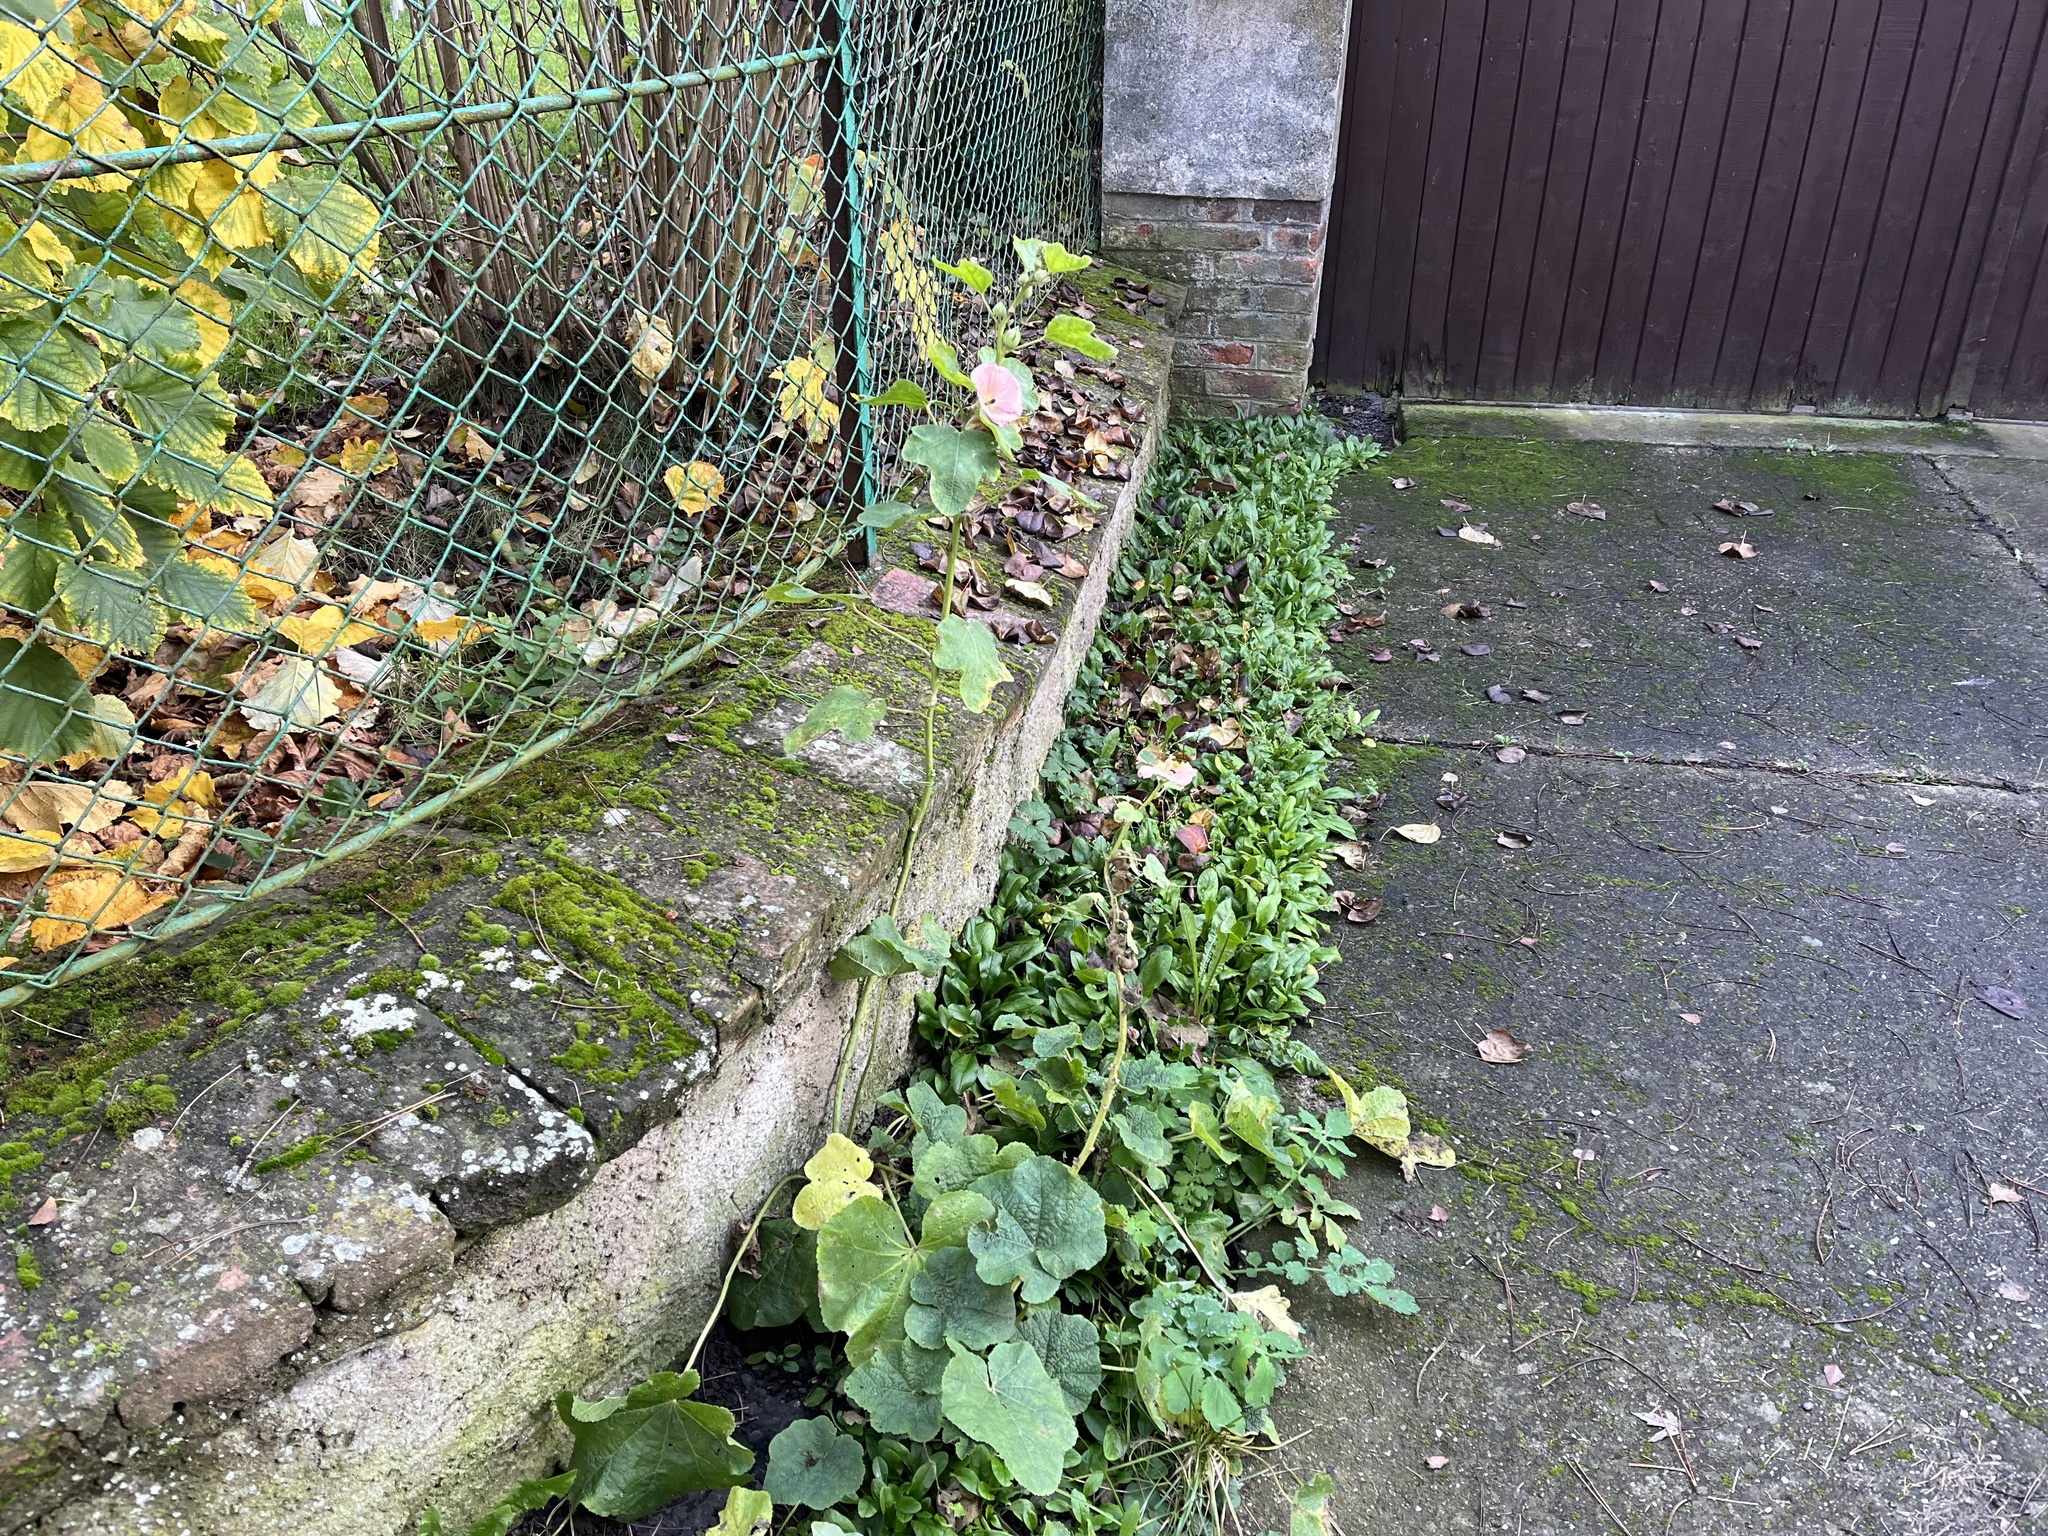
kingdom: Plantae
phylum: Tracheophyta
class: Magnoliopsida
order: Malvales
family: Malvaceae
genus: Alcea
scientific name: Alcea rosea
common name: Hollyhock
